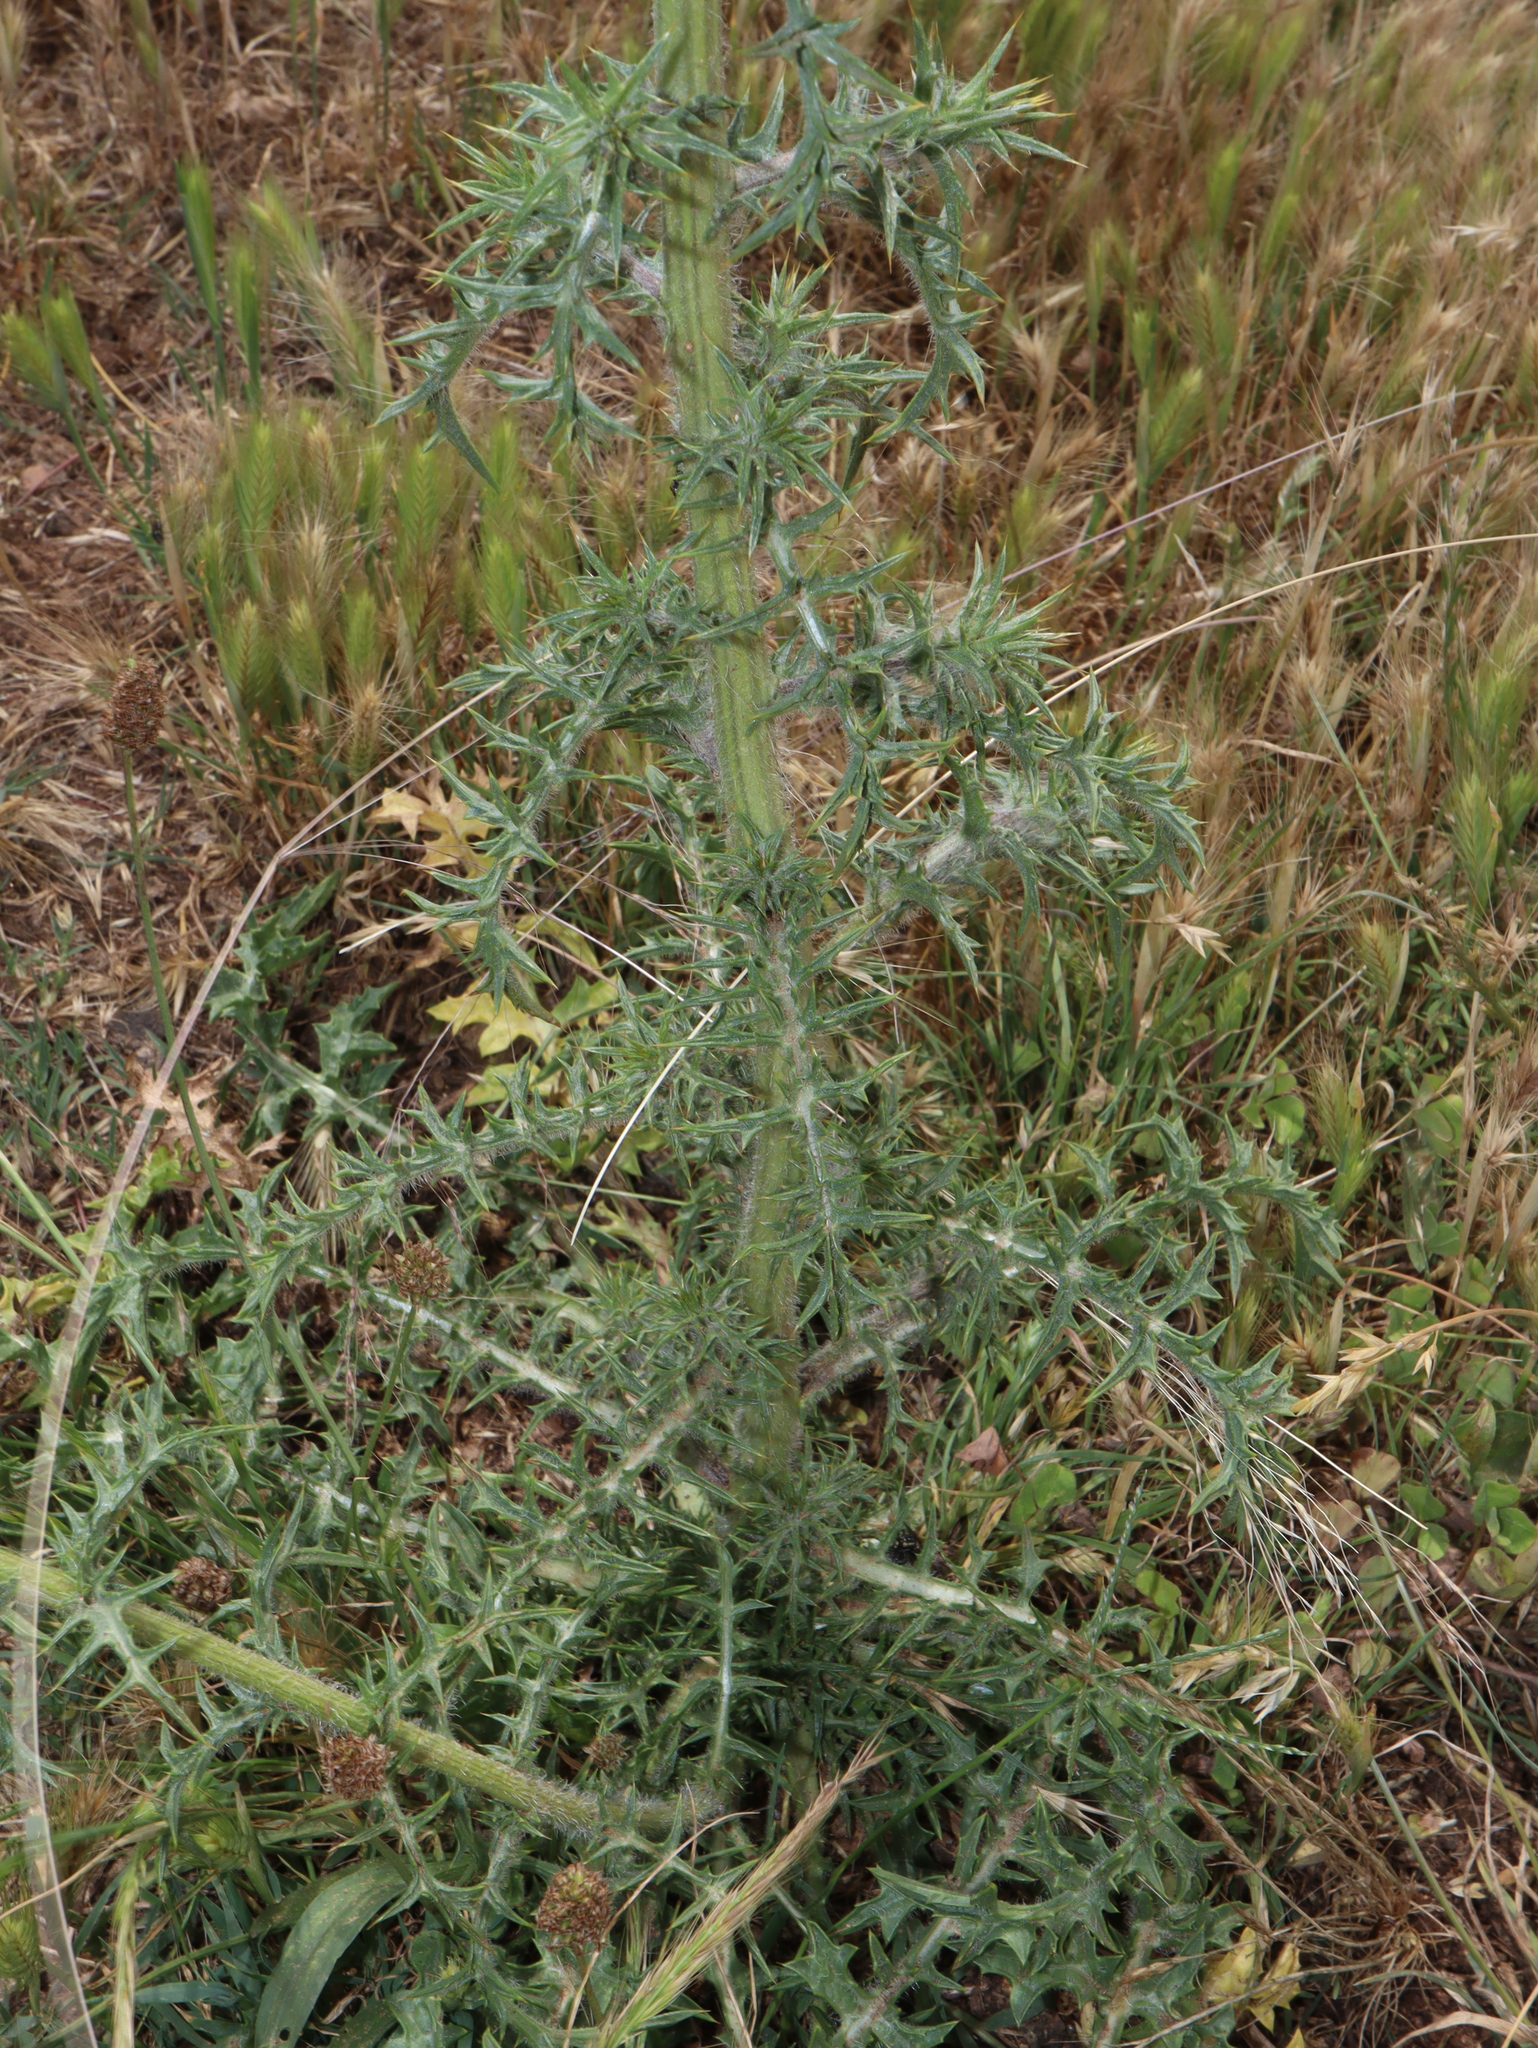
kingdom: Plantae
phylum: Tracheophyta
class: Magnoliopsida
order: Asterales
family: Asteraceae
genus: Carthamus
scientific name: Carthamus lanatus
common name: Downy safflower
